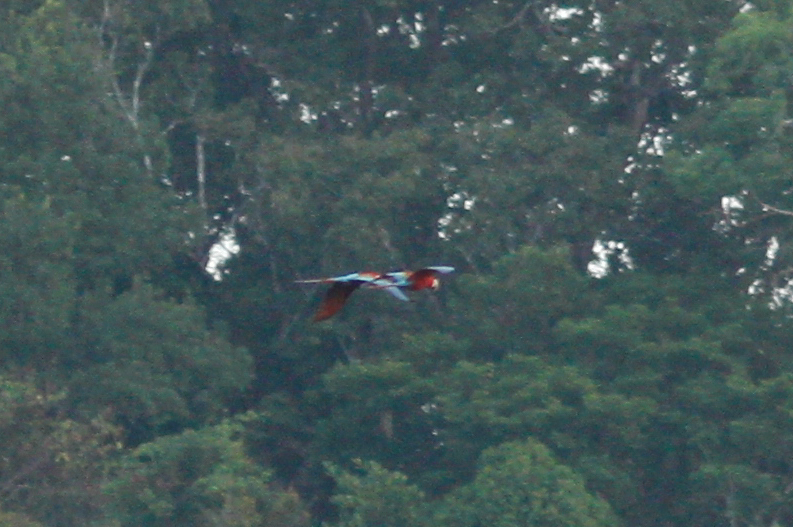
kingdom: Animalia
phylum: Chordata
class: Aves
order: Psittaciformes
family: Psittacidae
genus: Ara
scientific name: Ara chloropterus
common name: Red-and-green macaw
